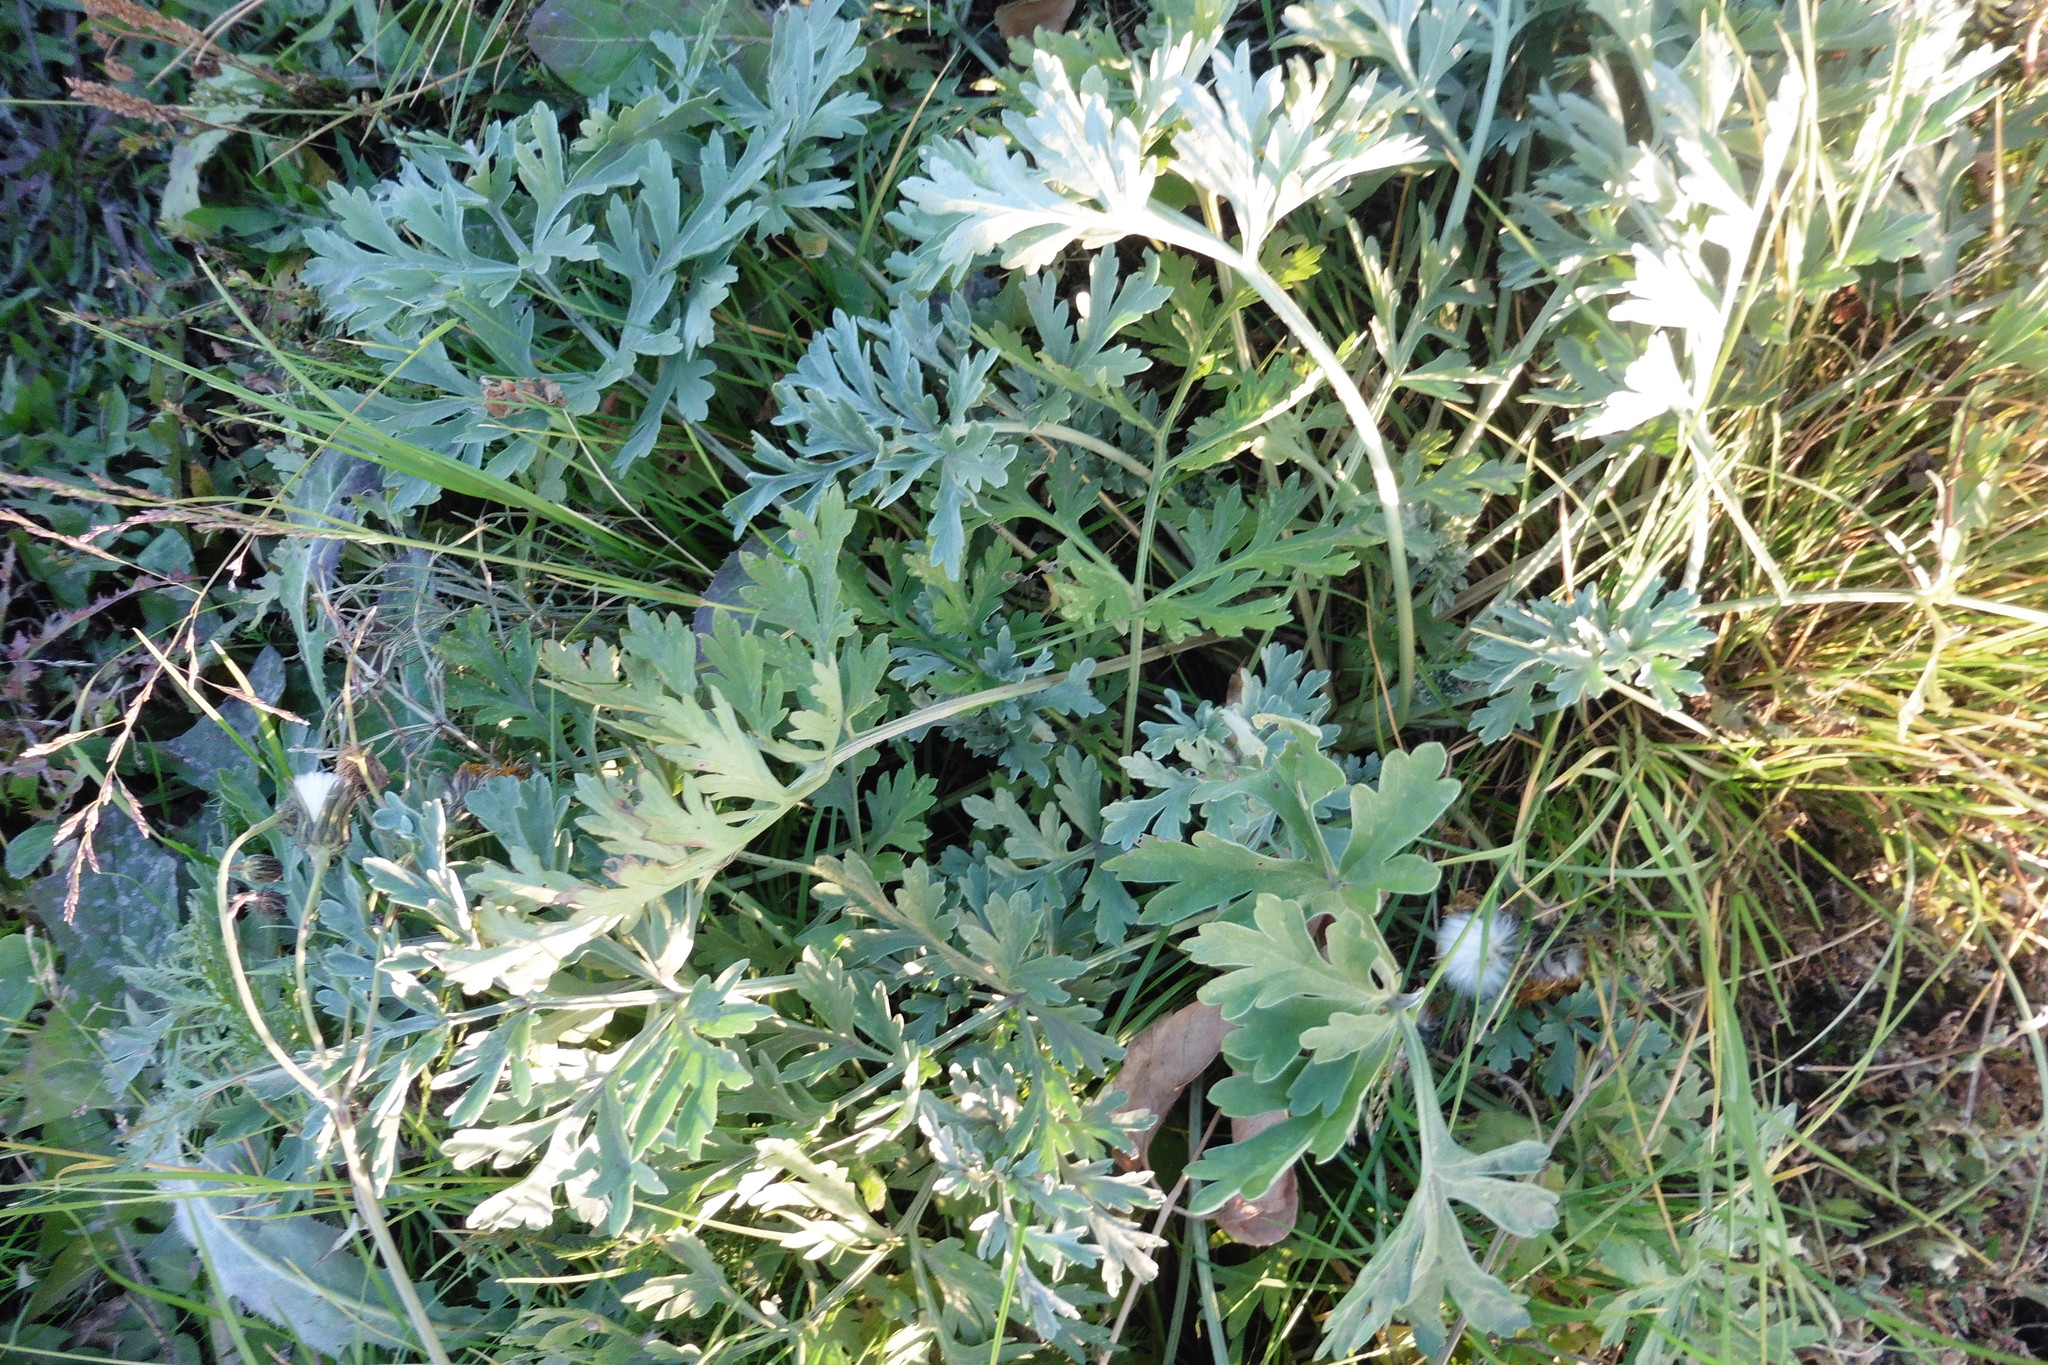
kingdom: Plantae
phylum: Tracheophyta
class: Magnoliopsida
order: Asterales
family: Asteraceae
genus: Artemisia
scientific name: Artemisia absinthium
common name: Wormwood
